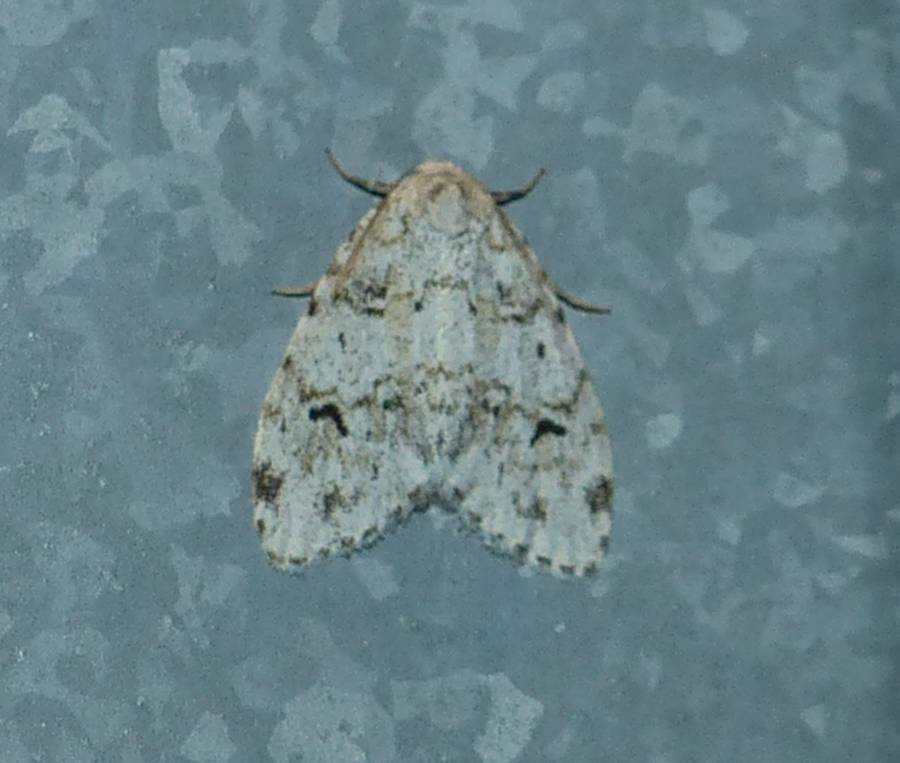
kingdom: Animalia
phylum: Arthropoda
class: Insecta
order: Lepidoptera
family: Erebidae
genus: Clemensia
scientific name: Clemensia albata
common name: Little white lichen moth
